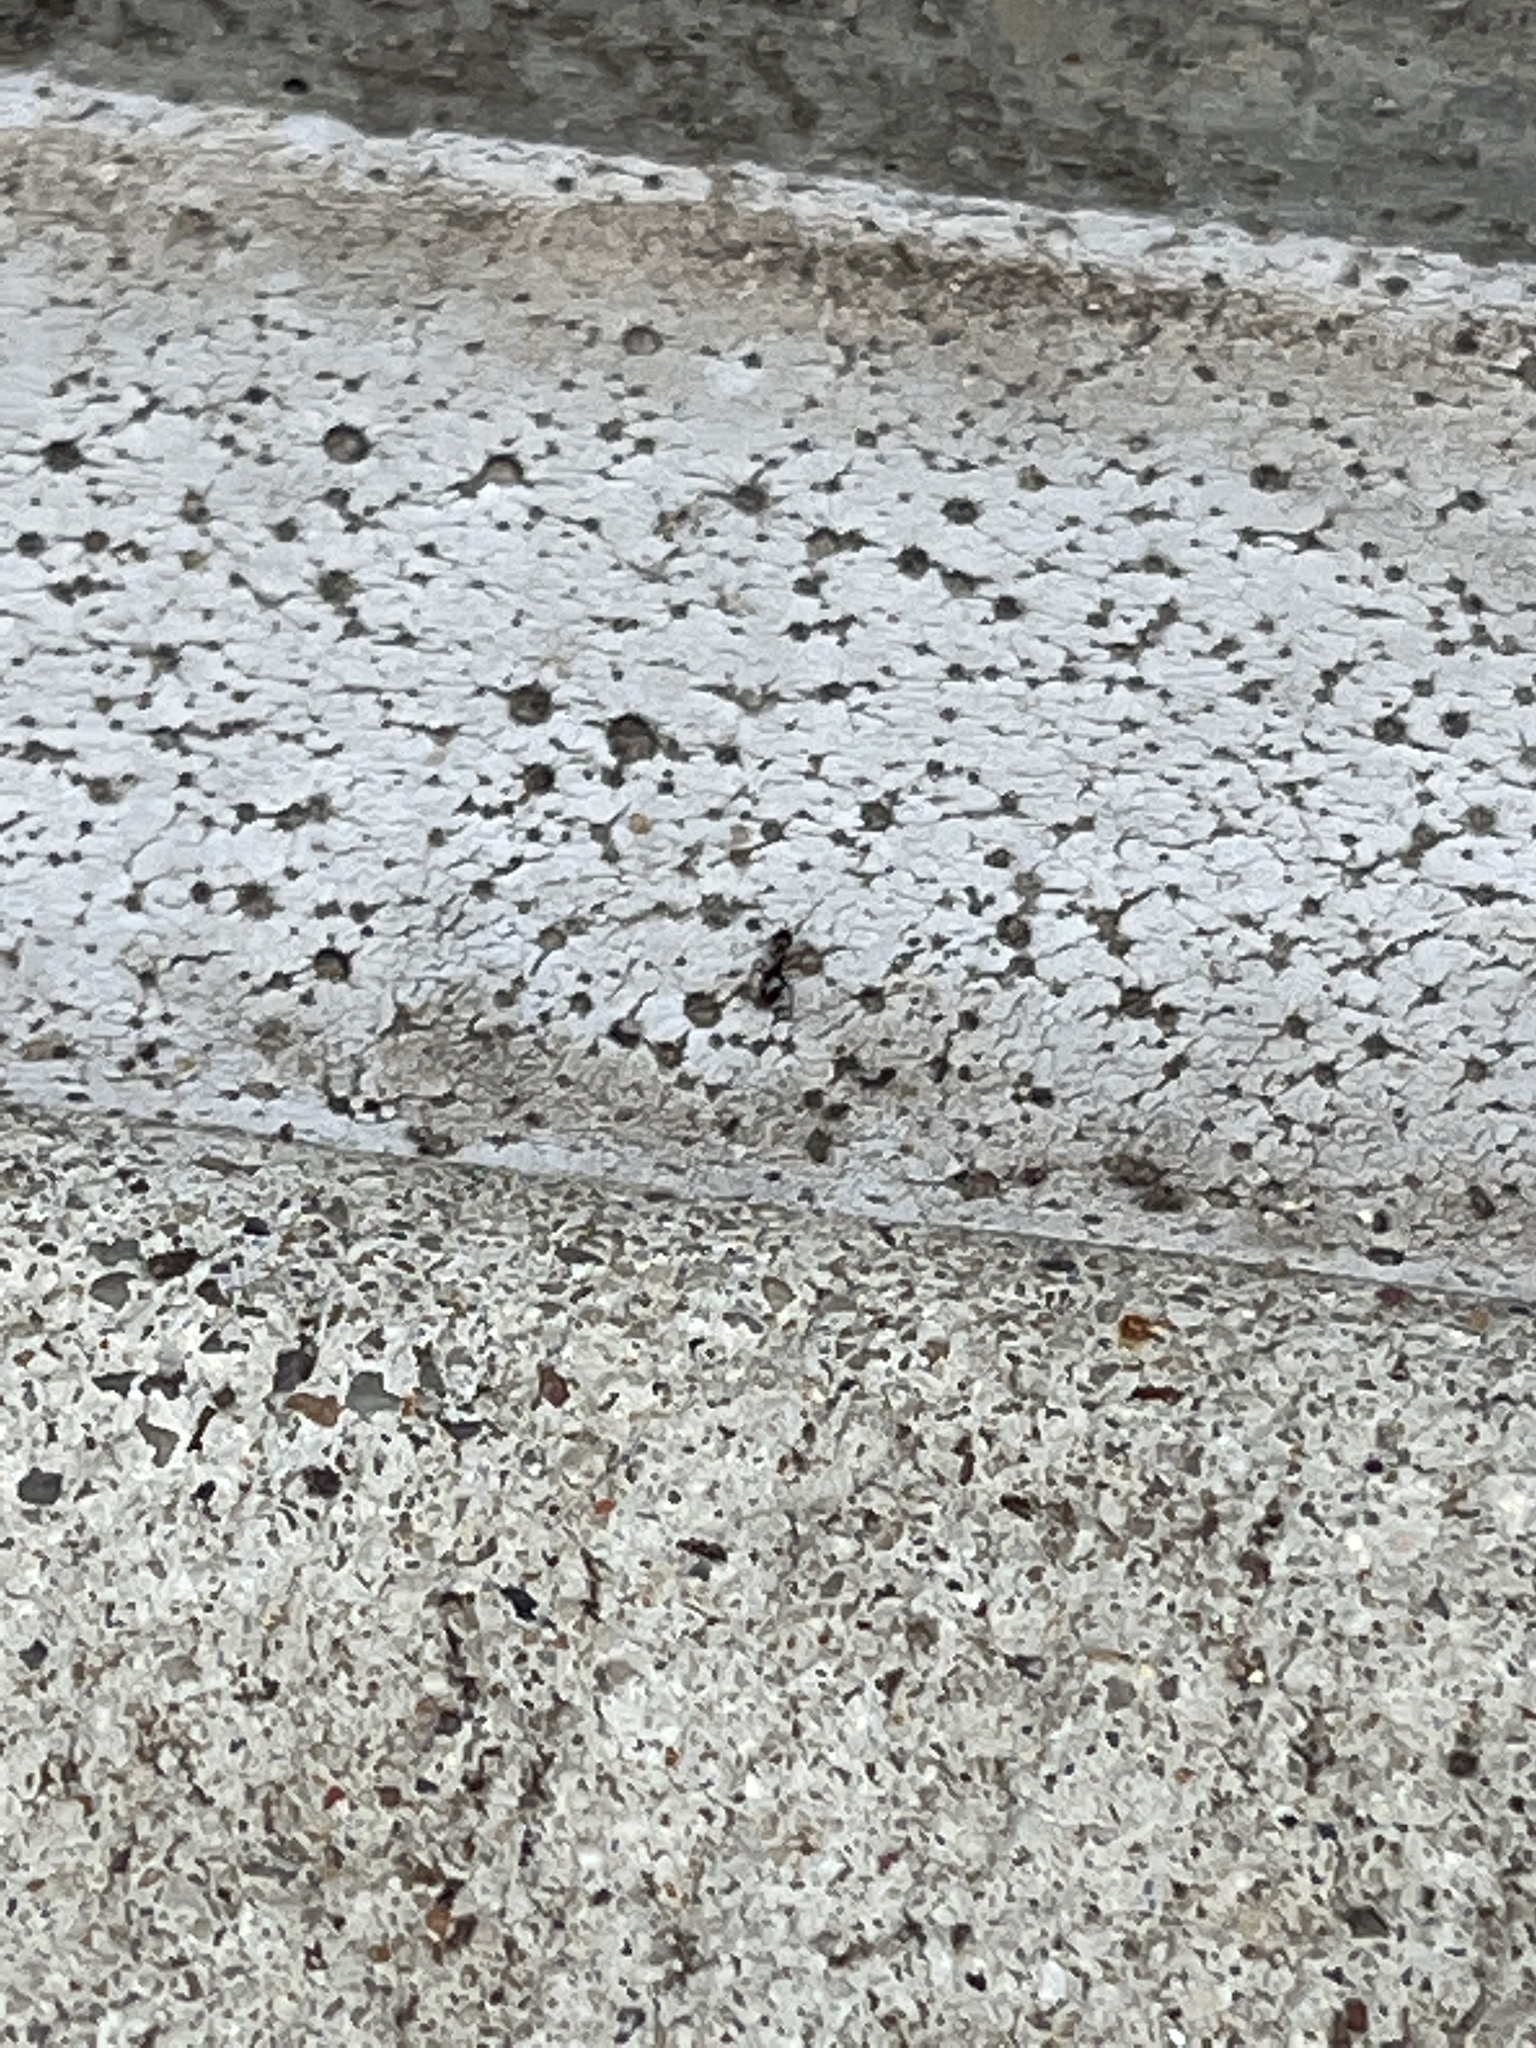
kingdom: Animalia
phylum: Arthropoda
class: Insecta
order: Hymenoptera
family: Formicidae
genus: Brachymyrmex
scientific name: Brachymyrmex patagonicus
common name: Dark rover ant
